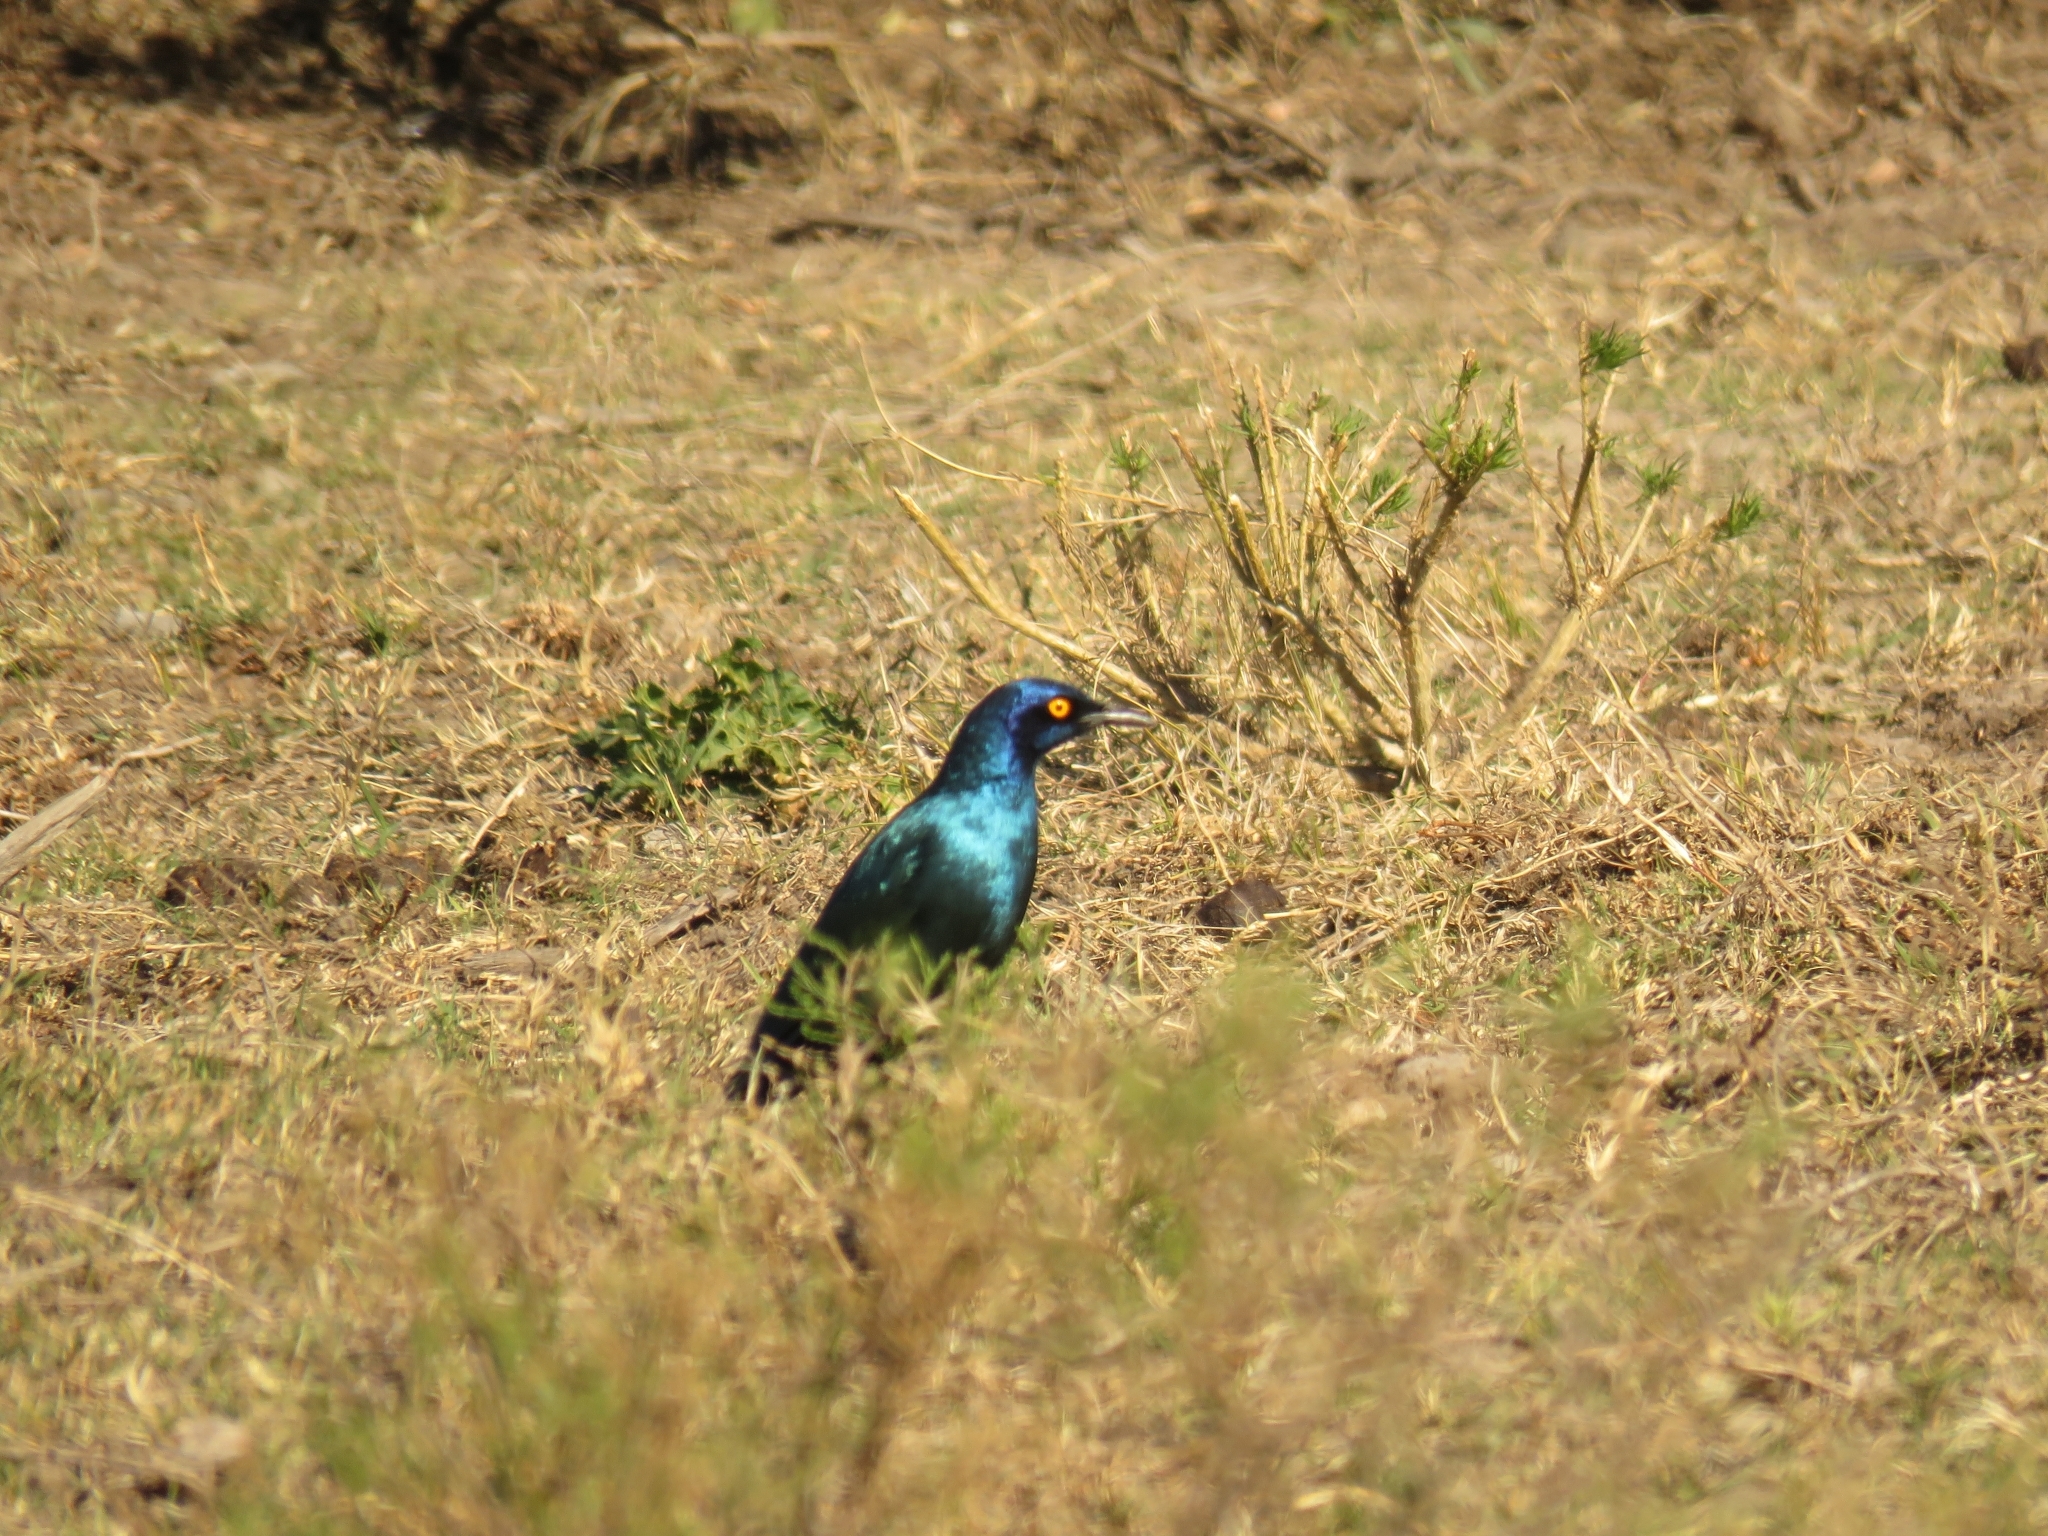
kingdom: Animalia
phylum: Chordata
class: Aves
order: Passeriformes
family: Sturnidae
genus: Lamprotornis
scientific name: Lamprotornis nitens
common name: Cape starling
